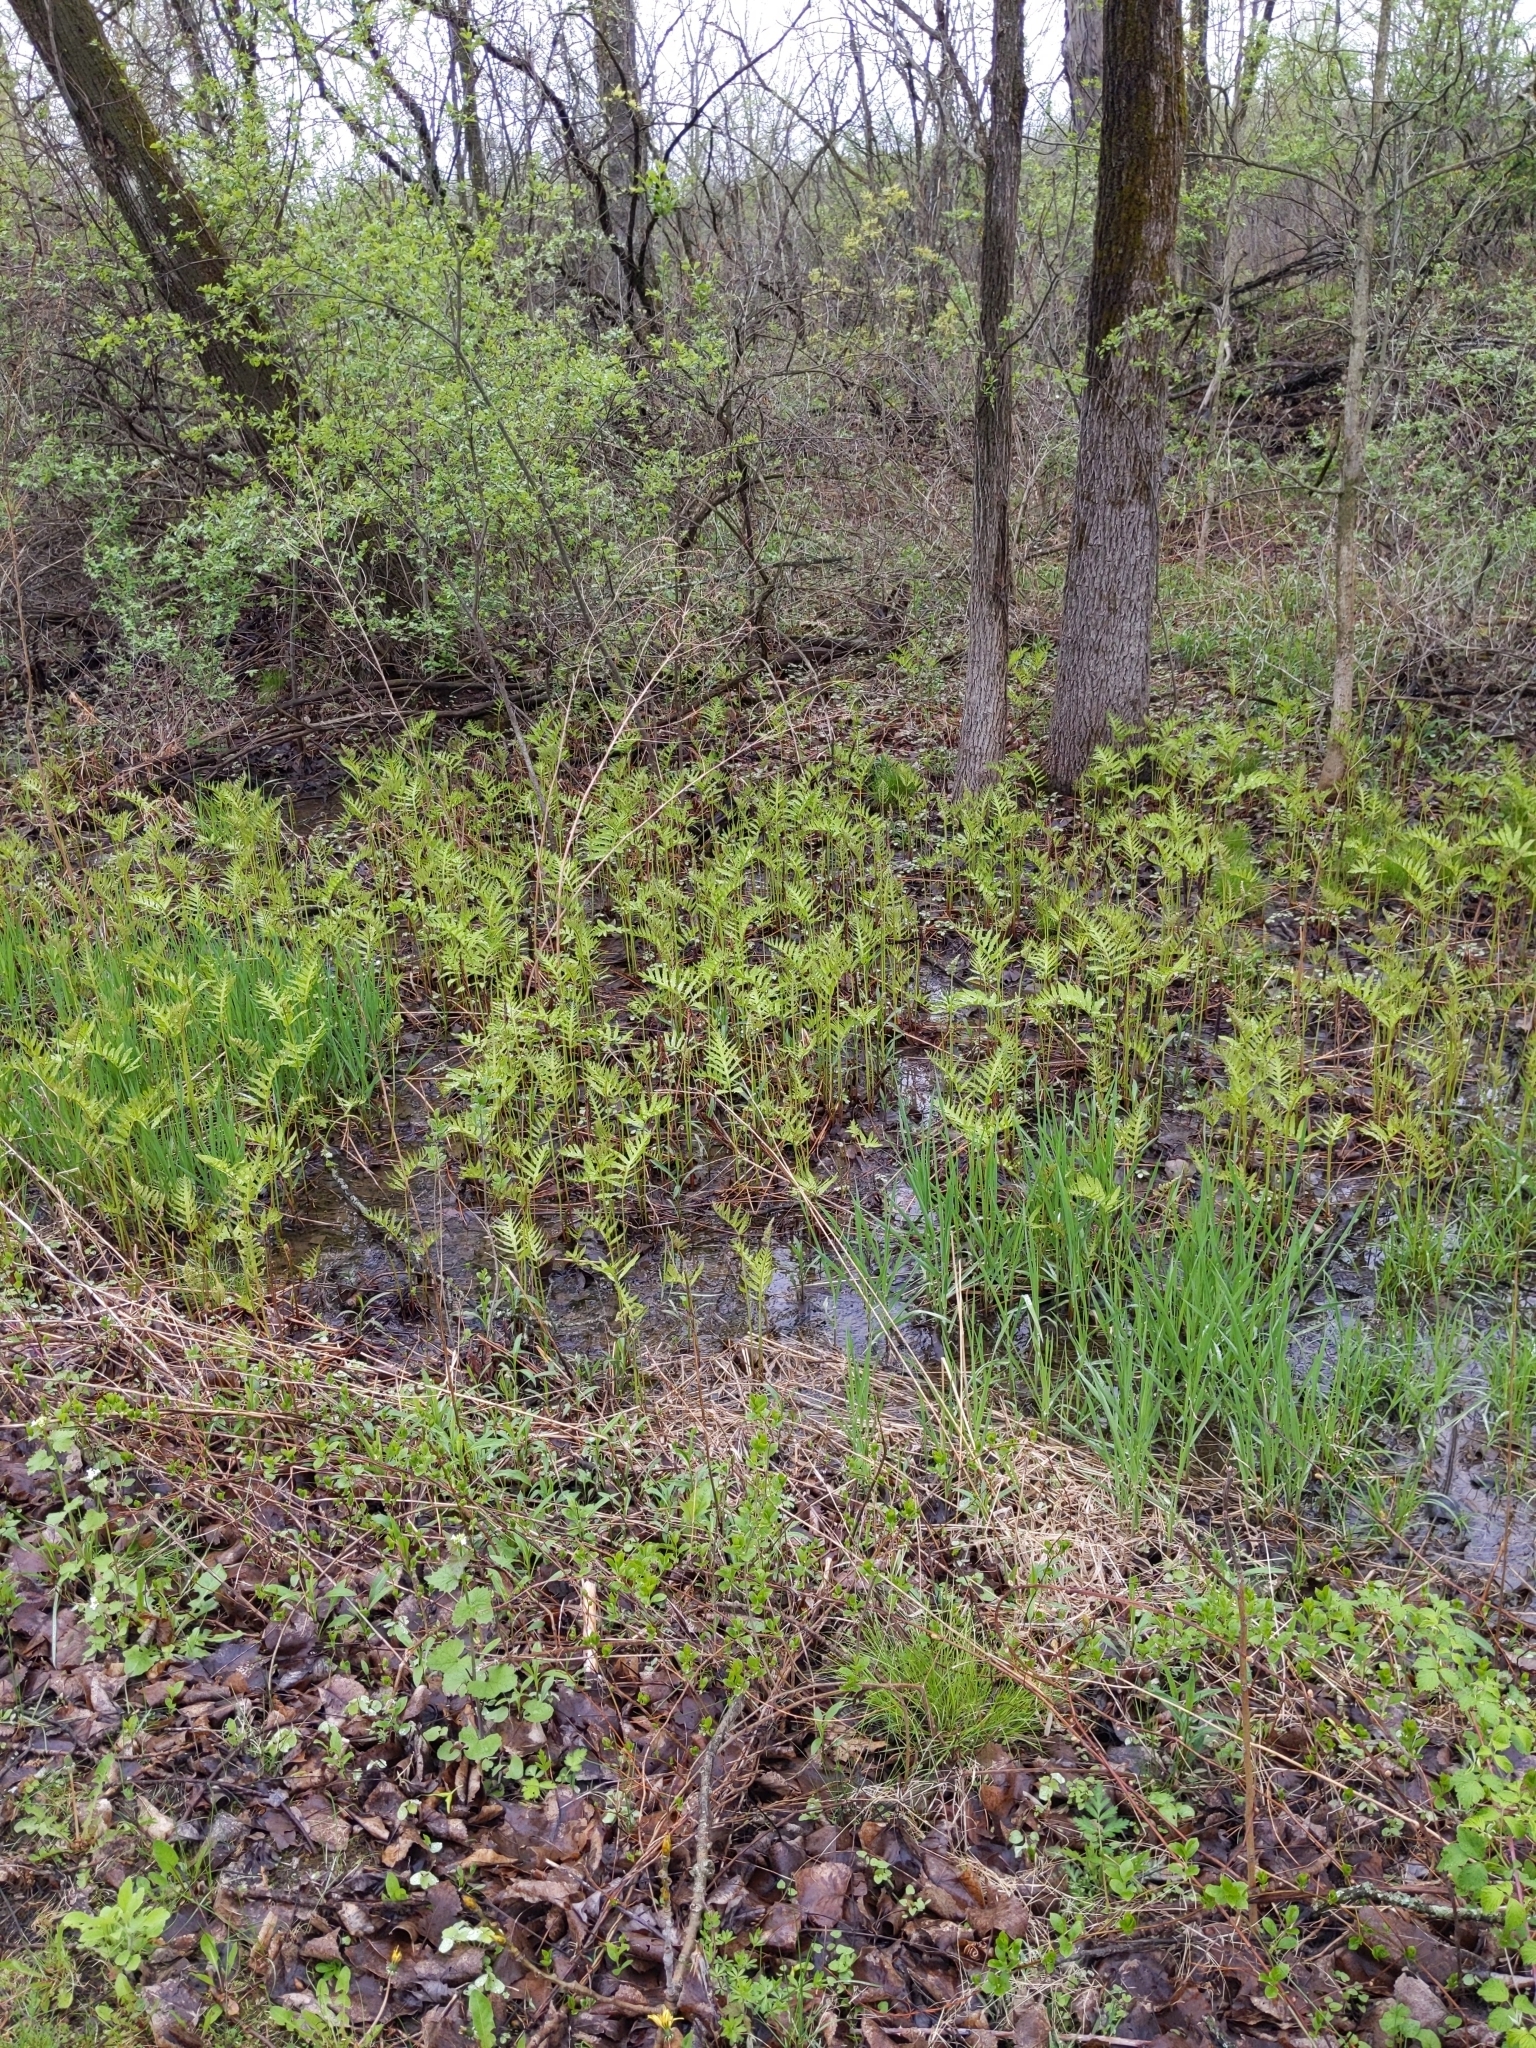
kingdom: Plantae
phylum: Tracheophyta
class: Polypodiopsida
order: Polypodiales
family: Onocleaceae
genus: Onoclea
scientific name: Onoclea sensibilis
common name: Sensitive fern
